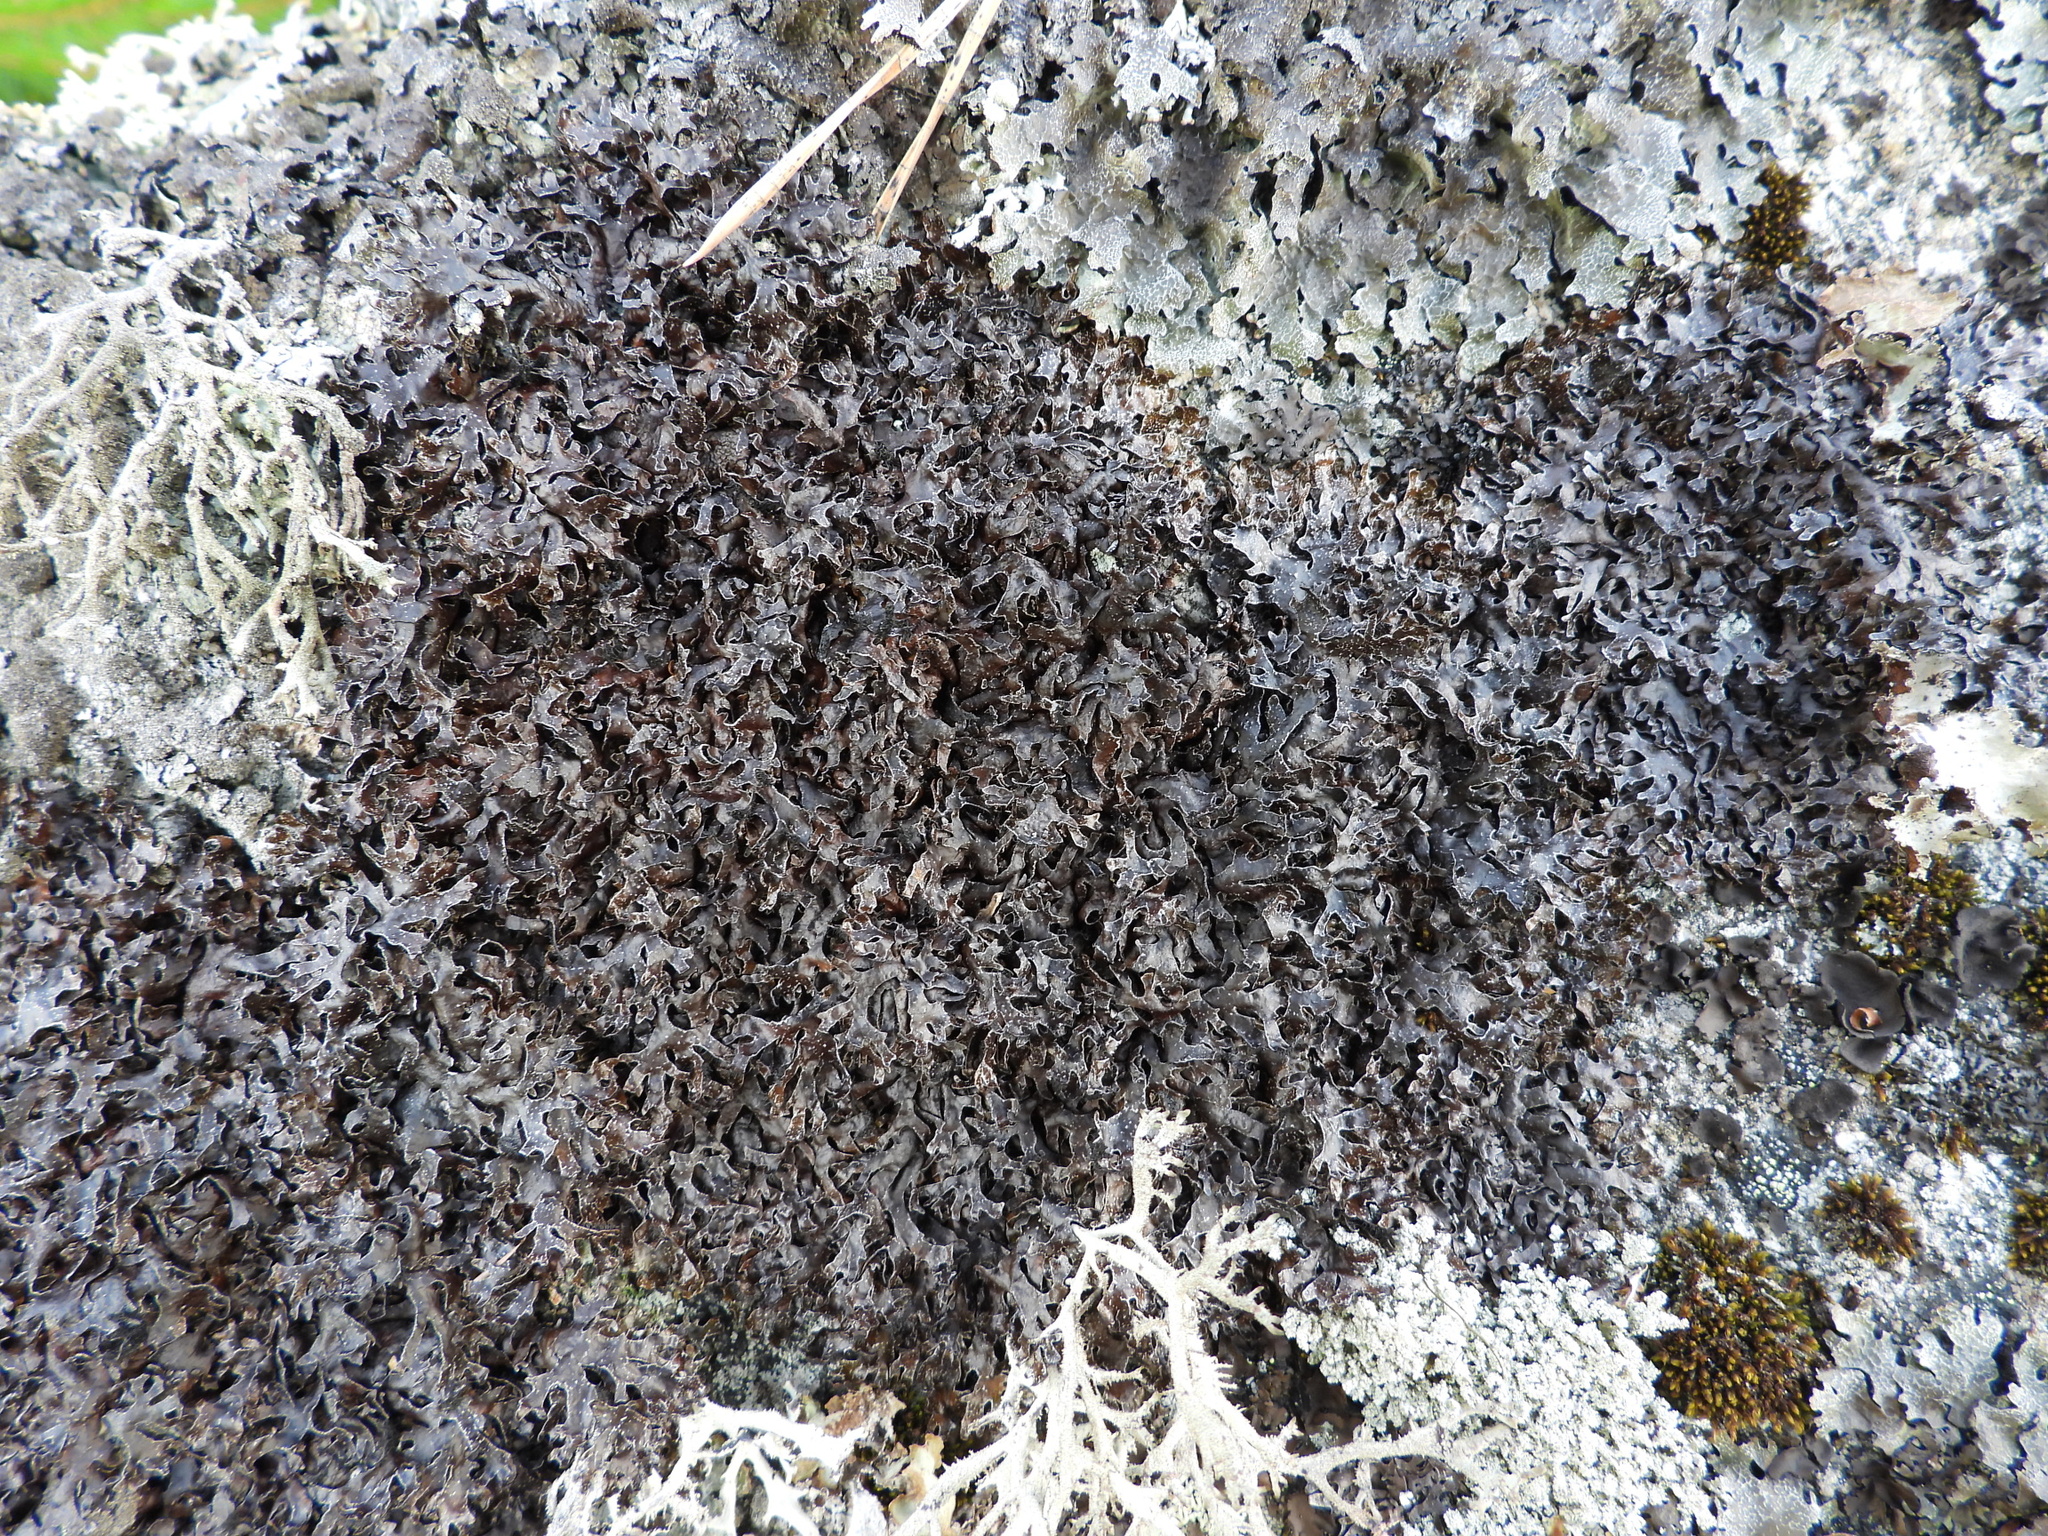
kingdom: Fungi
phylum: Ascomycota
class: Lecanoromycetes
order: Lecanorales
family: Parmeliaceae
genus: Parmelia
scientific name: Parmelia omphalodes
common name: Smoky crottle
